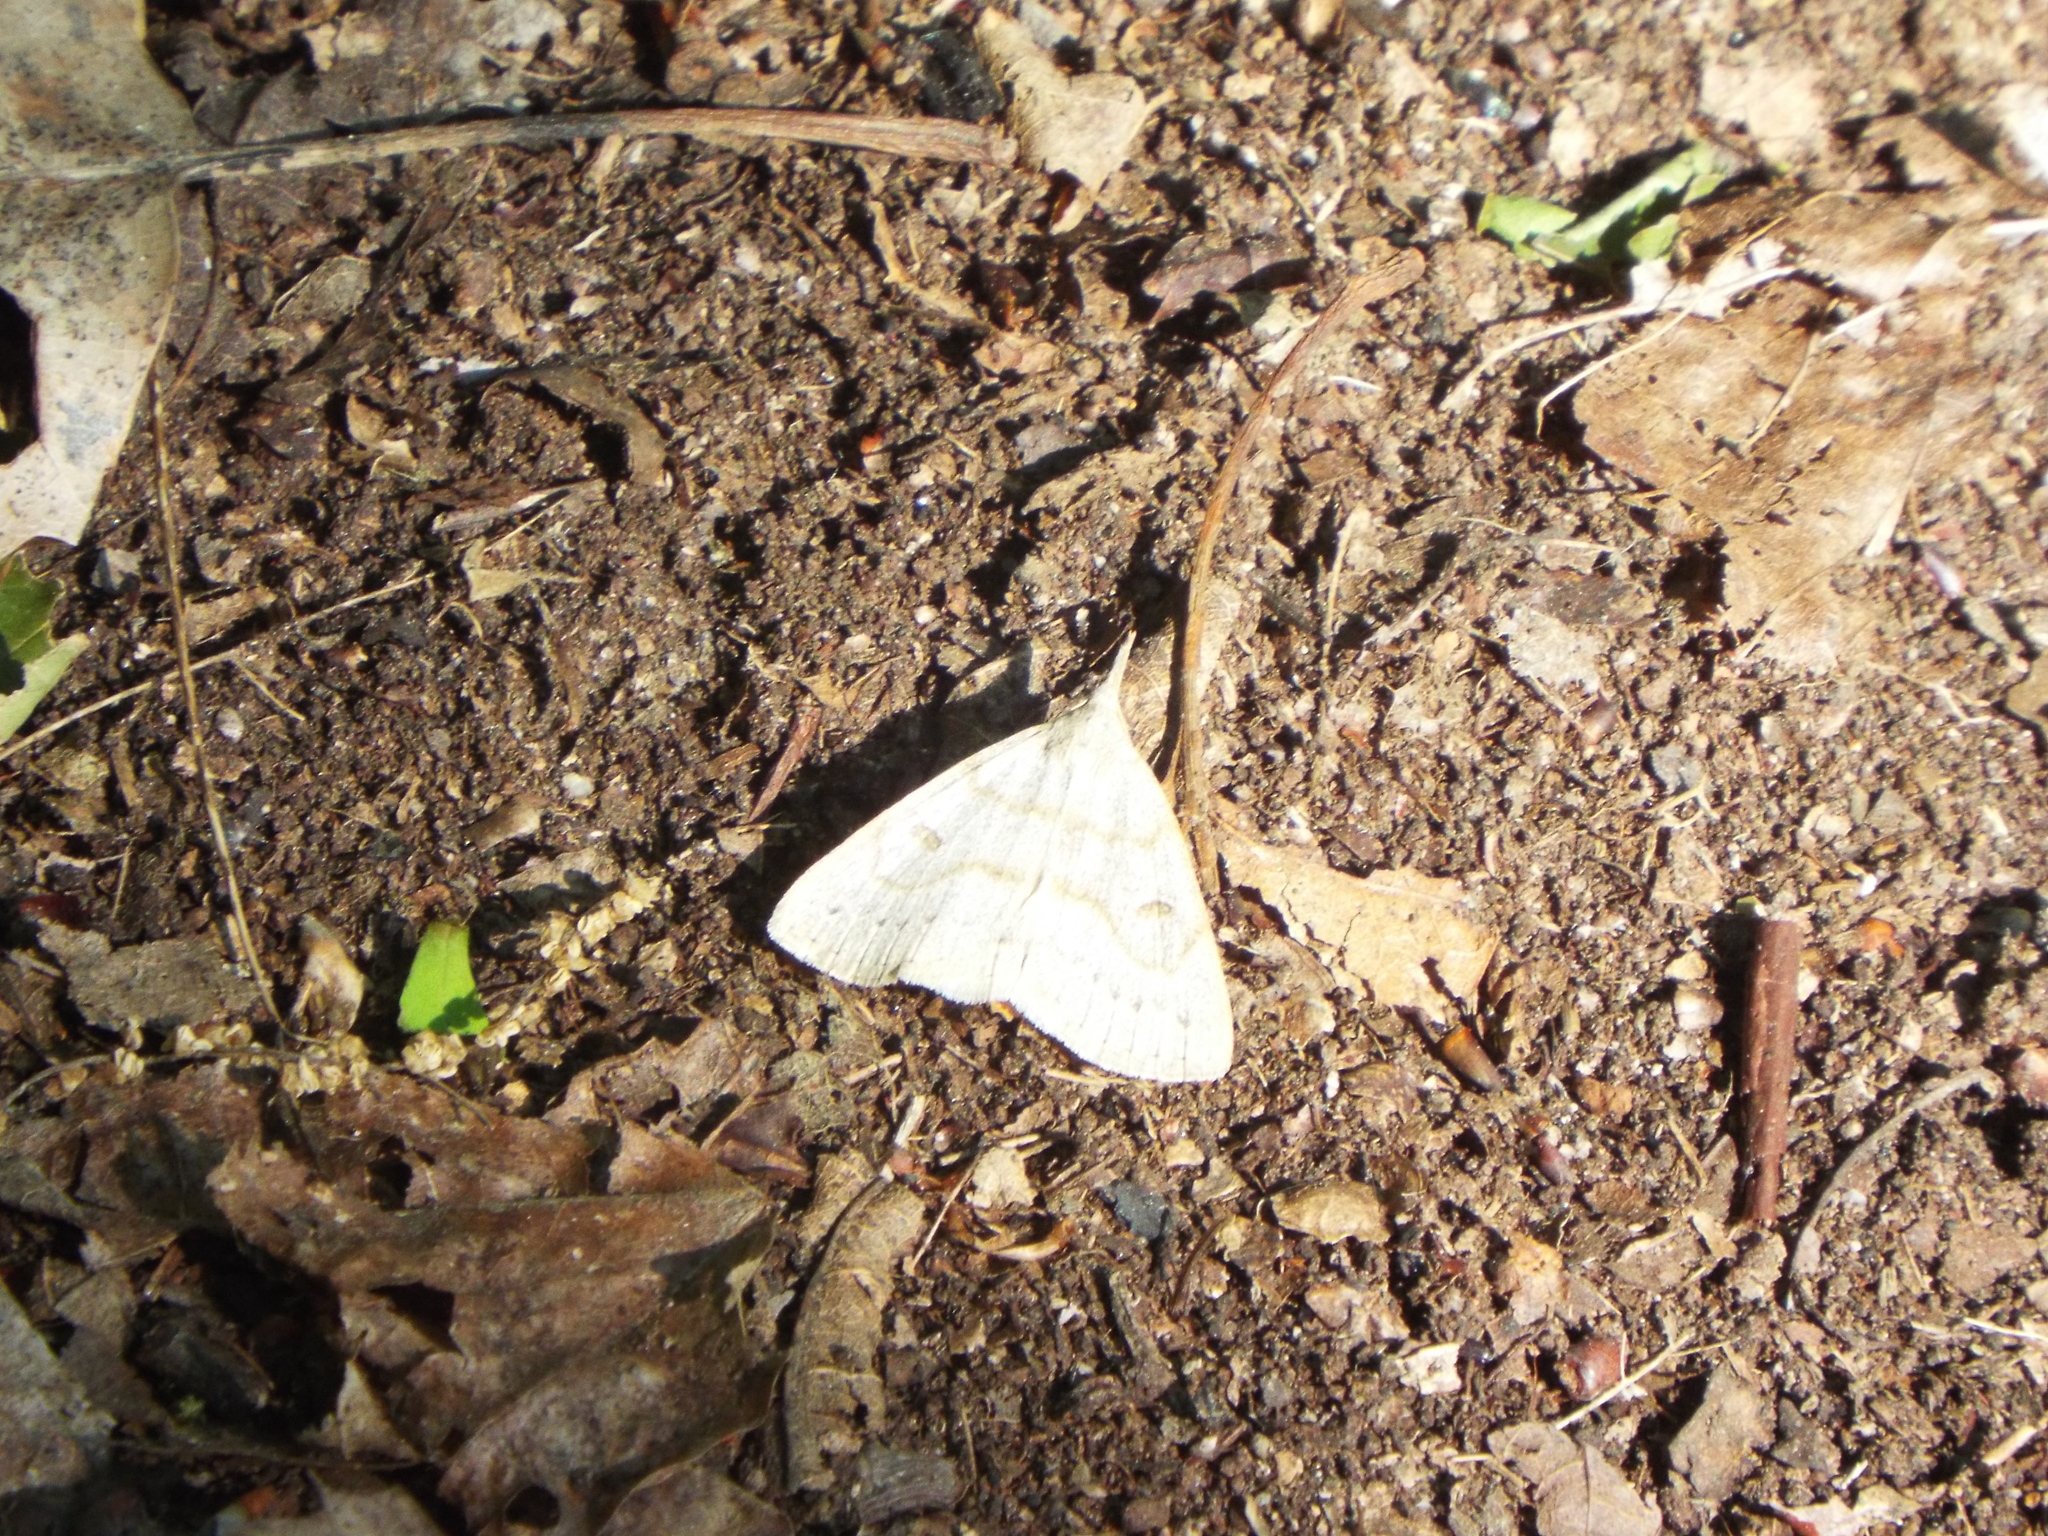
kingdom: Animalia
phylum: Arthropoda
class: Insecta
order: Lepidoptera
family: Erebidae
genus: Macrochilo
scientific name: Macrochilo morbidalis
